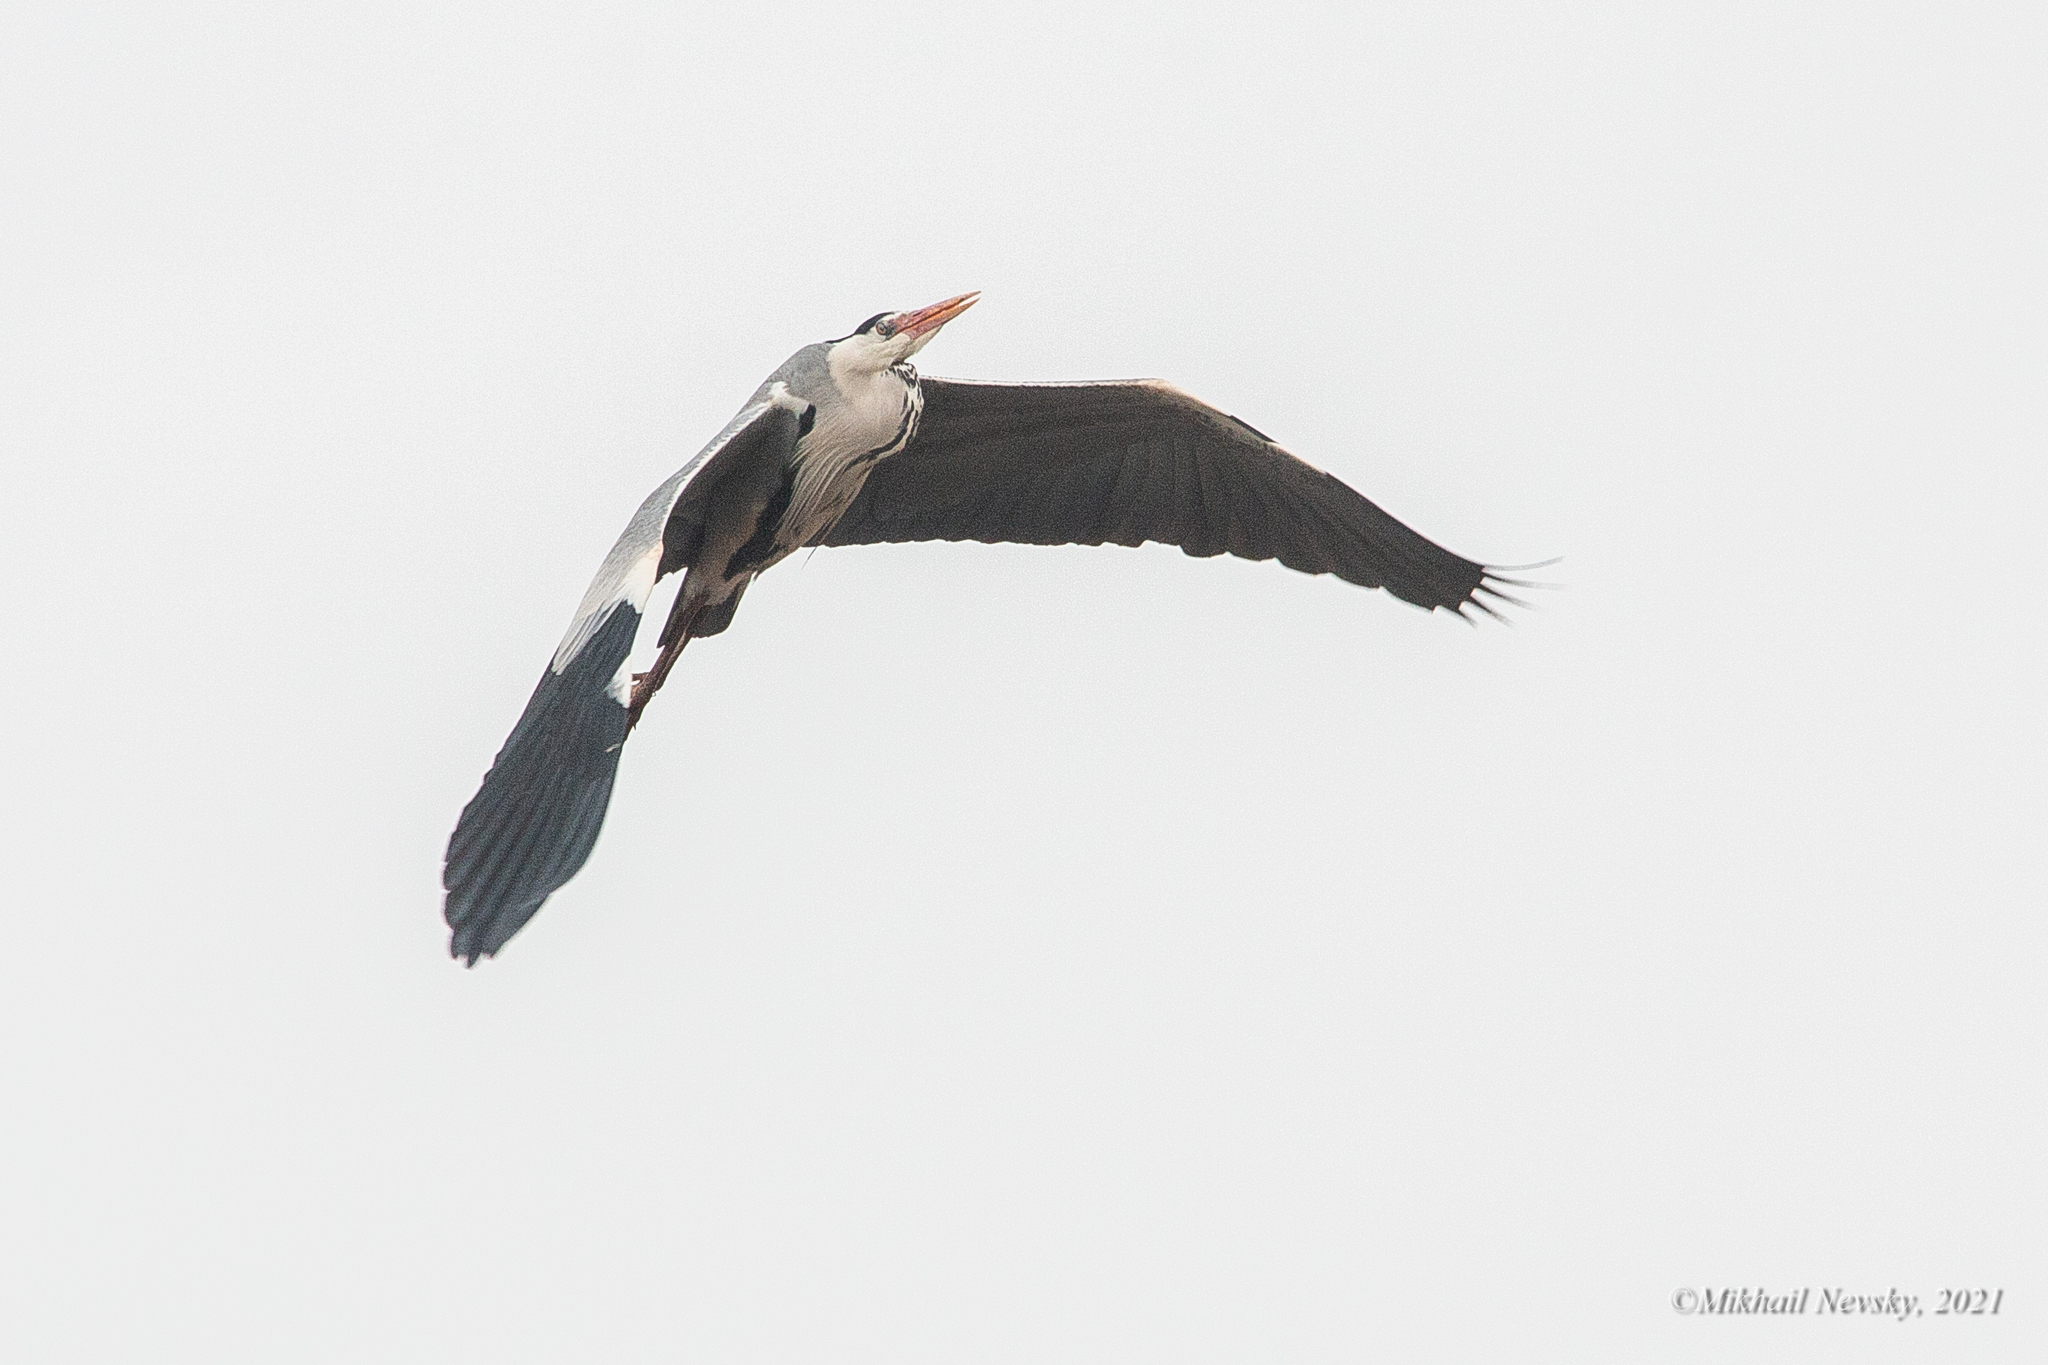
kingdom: Animalia
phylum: Chordata
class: Aves
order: Pelecaniformes
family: Ardeidae
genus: Ardea
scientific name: Ardea cinerea
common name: Grey heron
